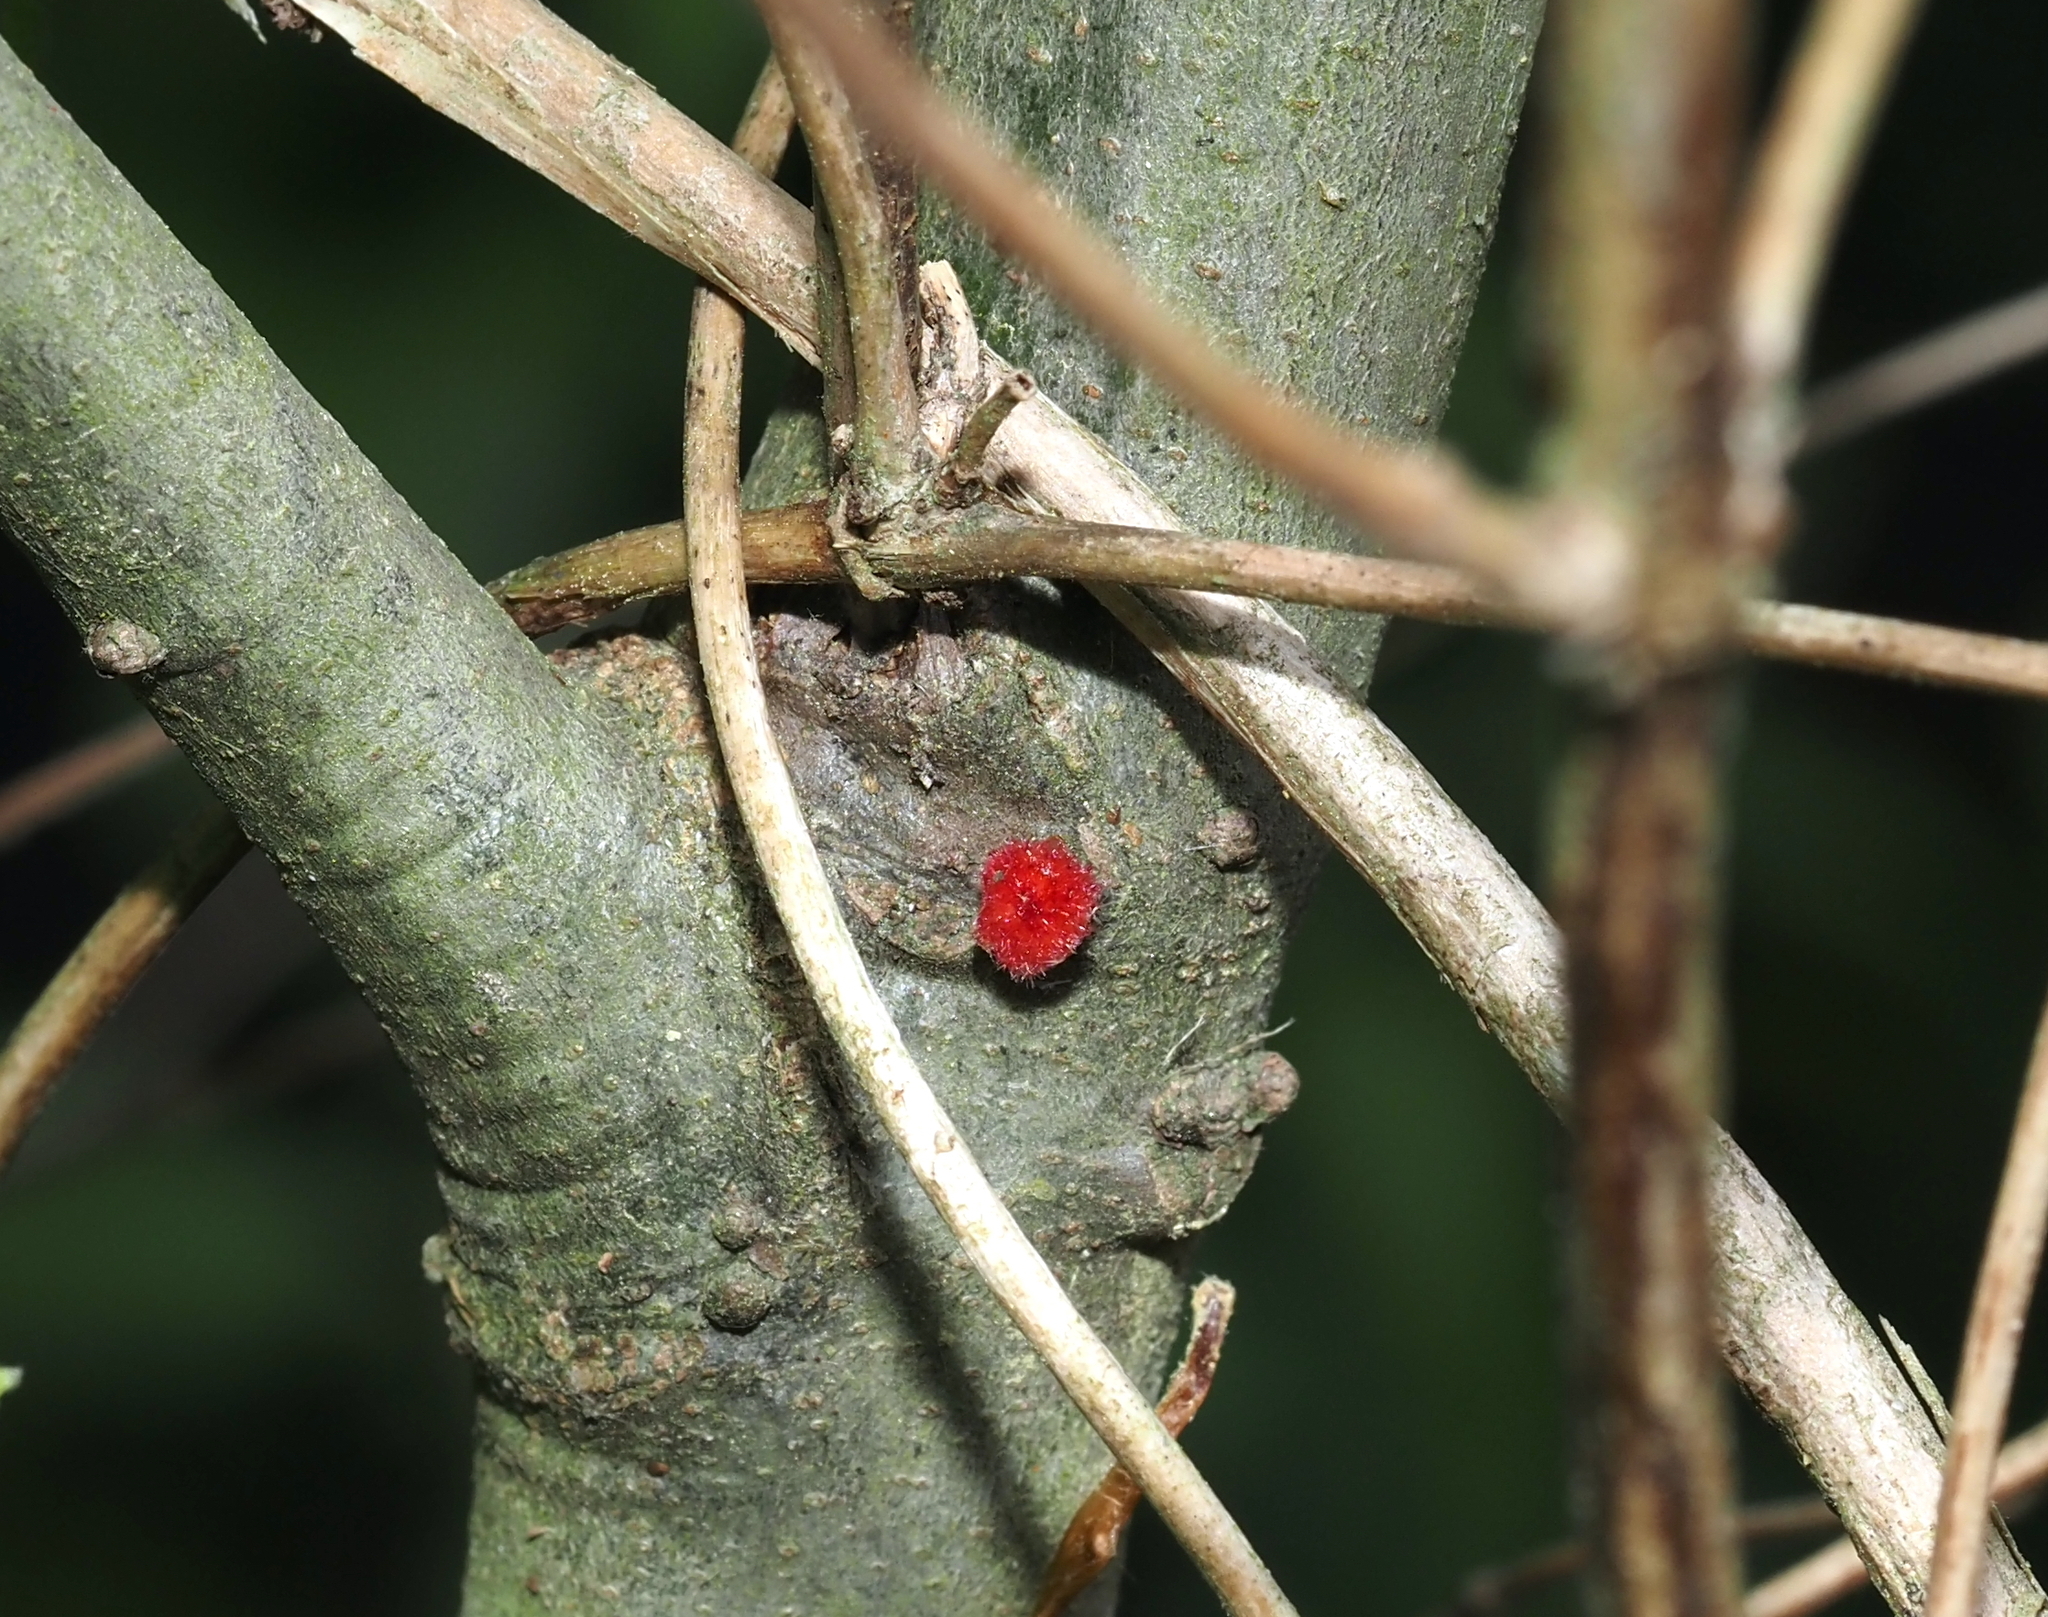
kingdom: Animalia
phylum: Arthropoda
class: Insecta
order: Hymenoptera
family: Cynipidae
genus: Dryocosmus
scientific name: Dryocosmus
